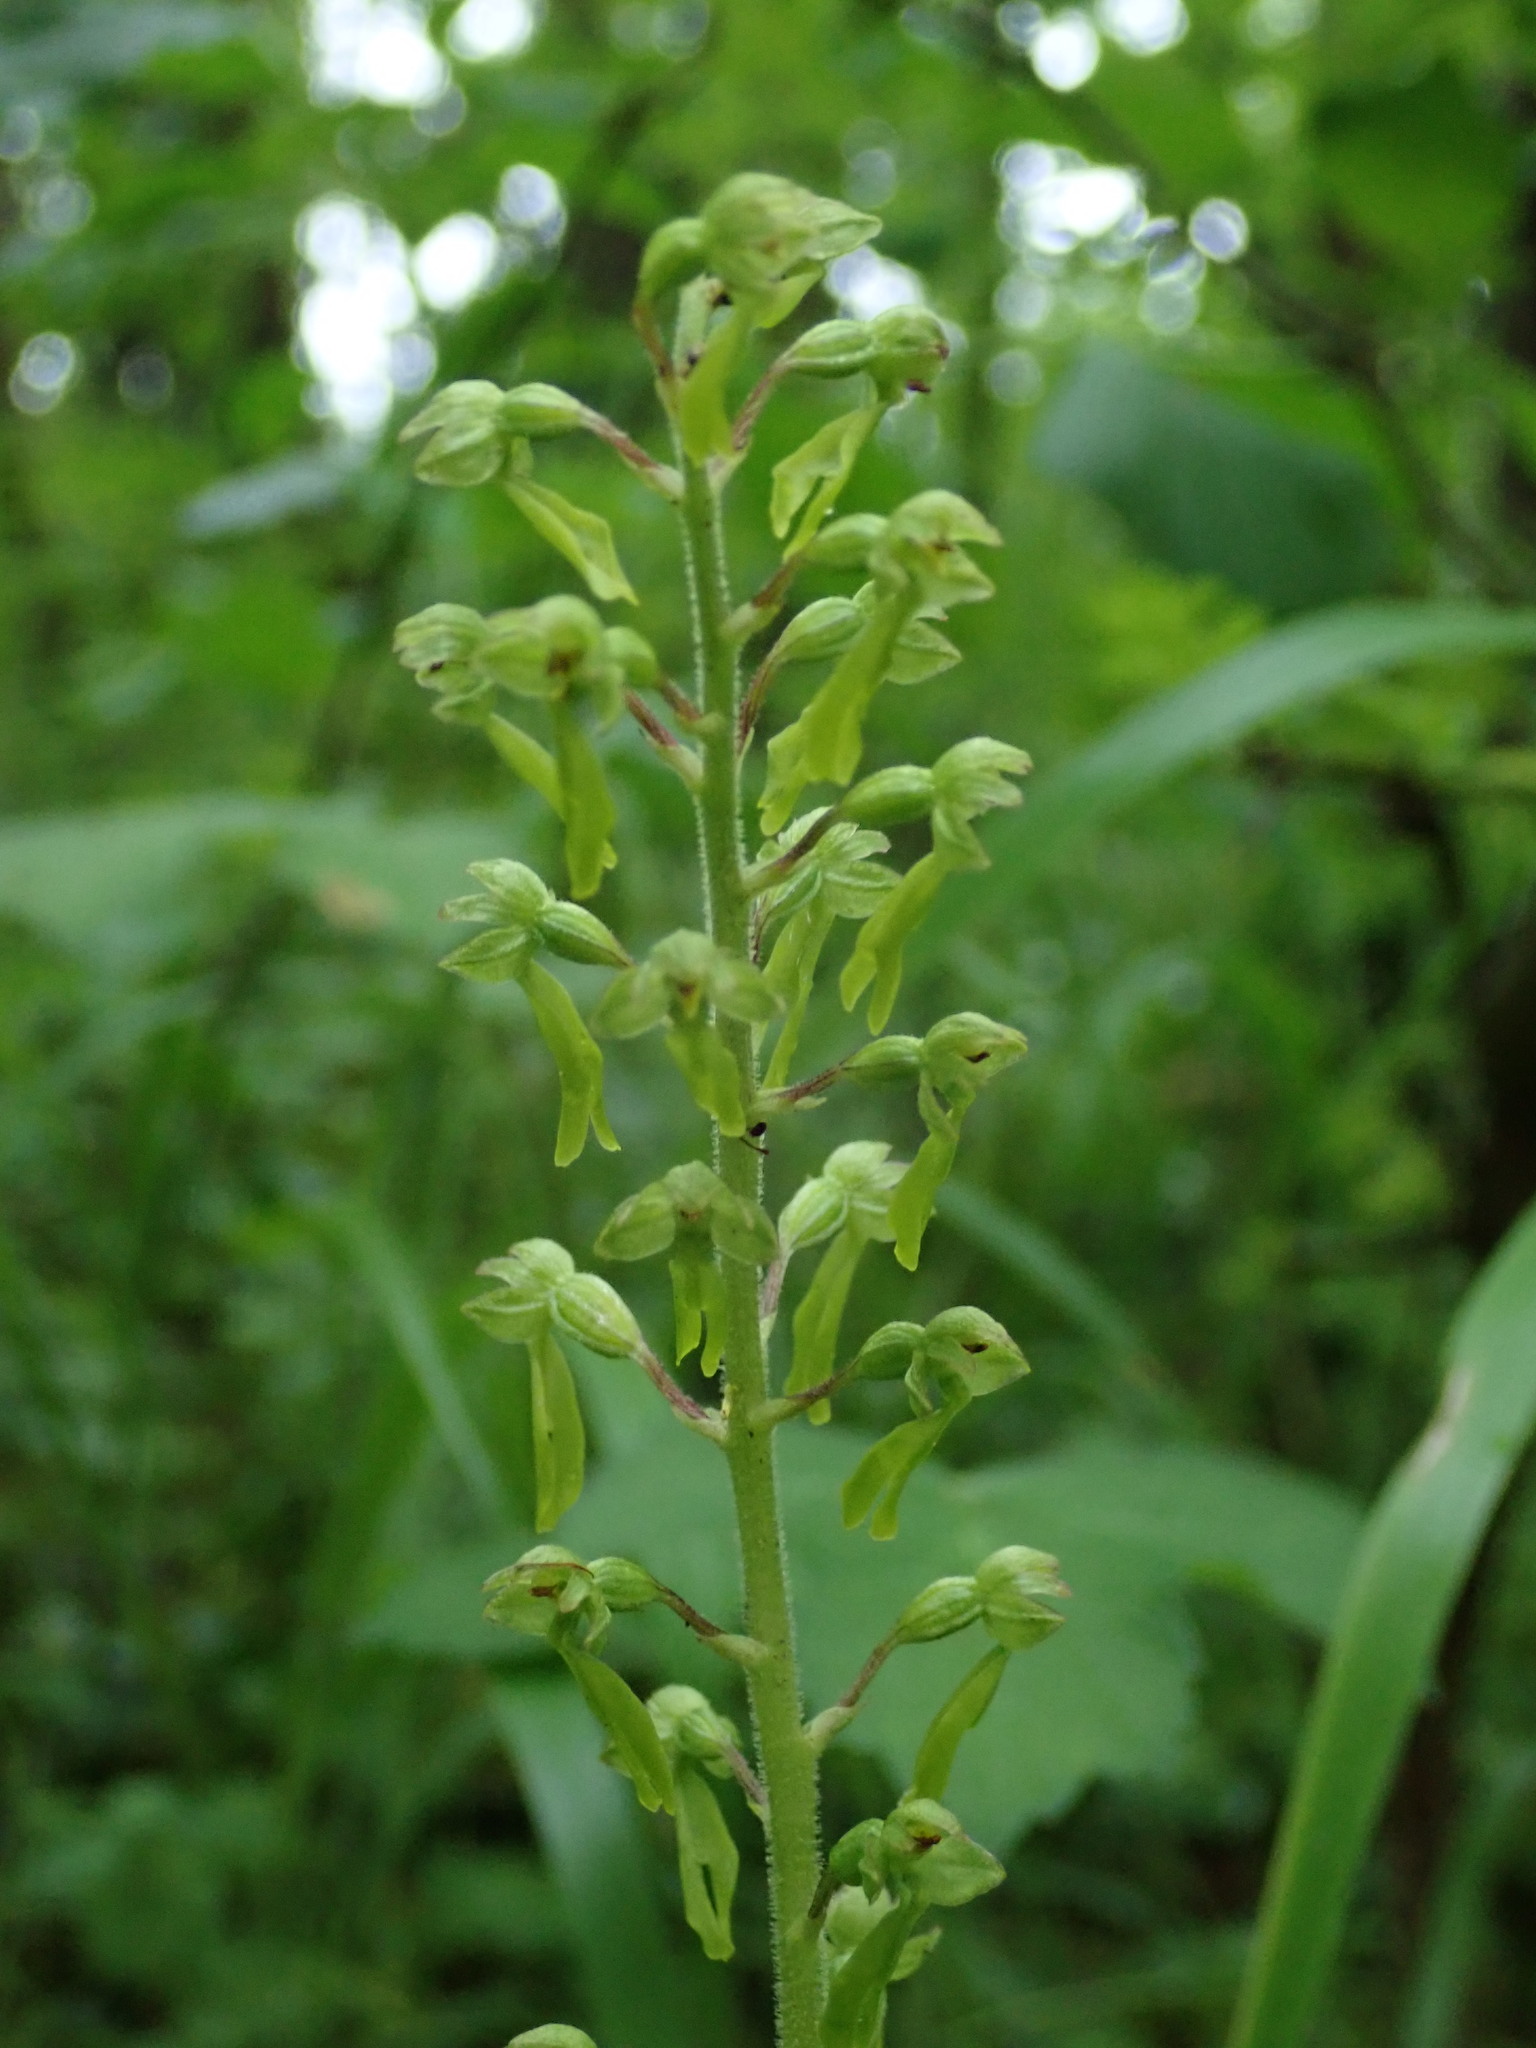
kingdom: Plantae
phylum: Tracheophyta
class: Liliopsida
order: Asparagales
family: Orchidaceae
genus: Neottia
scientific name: Neottia ovata
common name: Common twayblade
